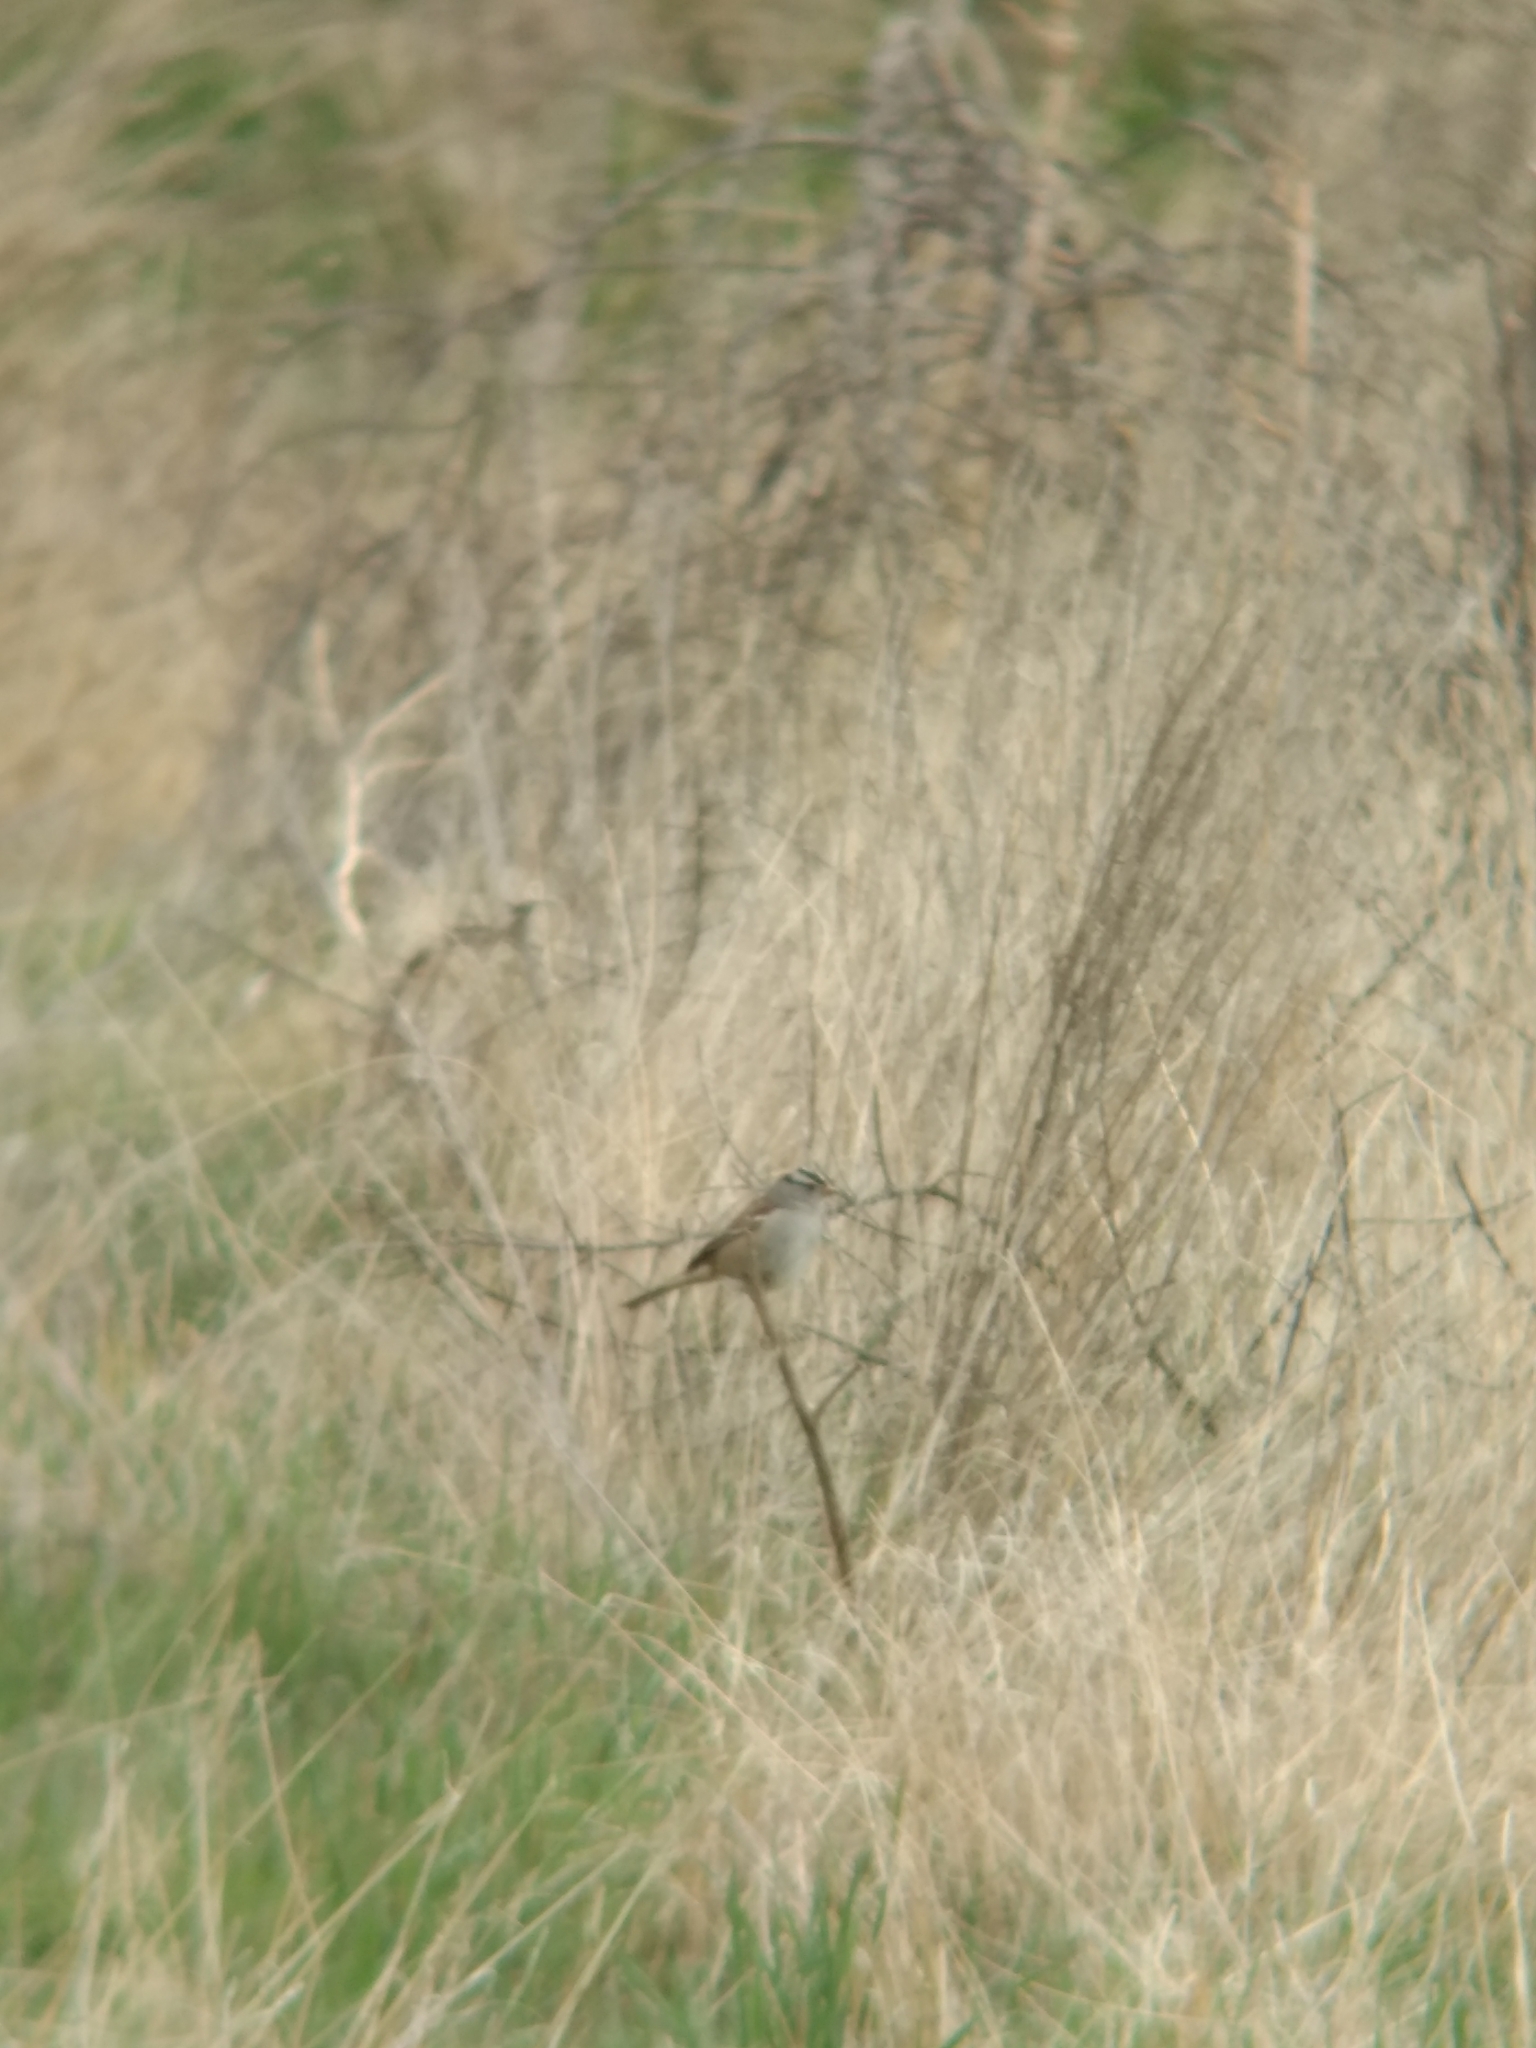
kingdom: Animalia
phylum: Chordata
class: Aves
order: Passeriformes
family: Passerellidae
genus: Zonotrichia
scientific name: Zonotrichia leucophrys
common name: White-crowned sparrow
